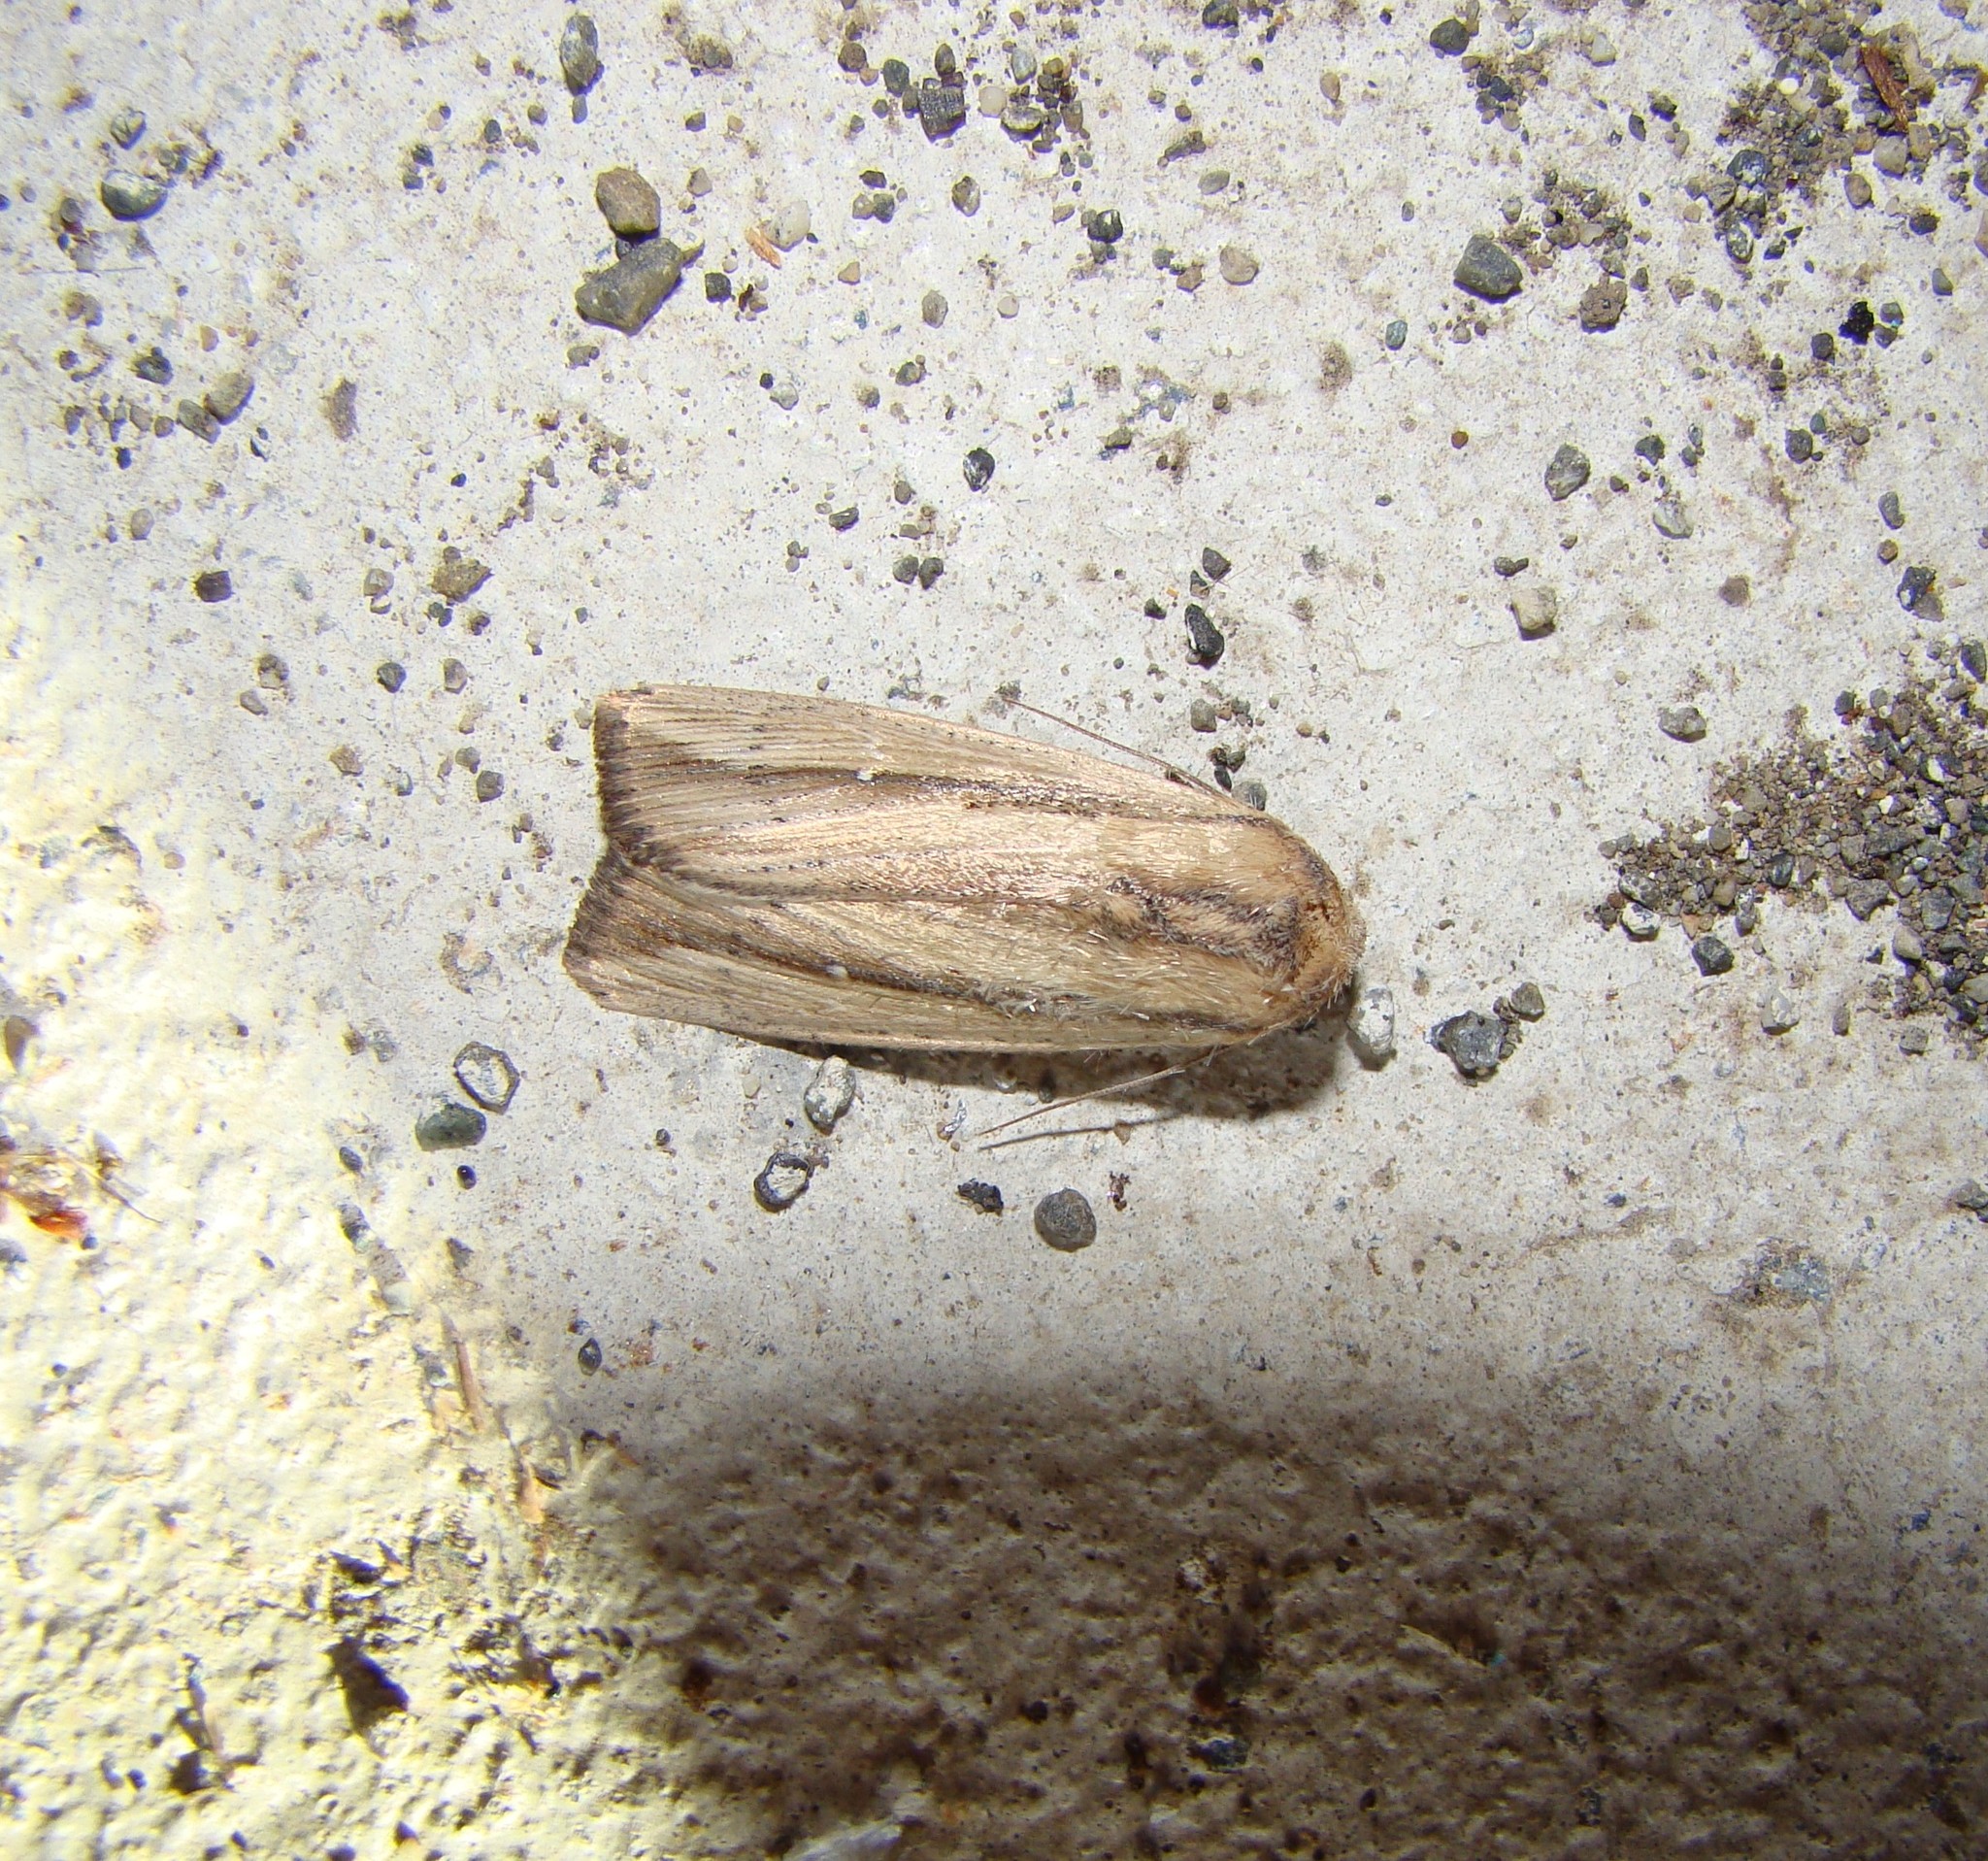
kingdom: Animalia
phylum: Arthropoda
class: Insecta
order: Lepidoptera
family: Noctuidae
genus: Leucania
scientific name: Leucania stenographa
